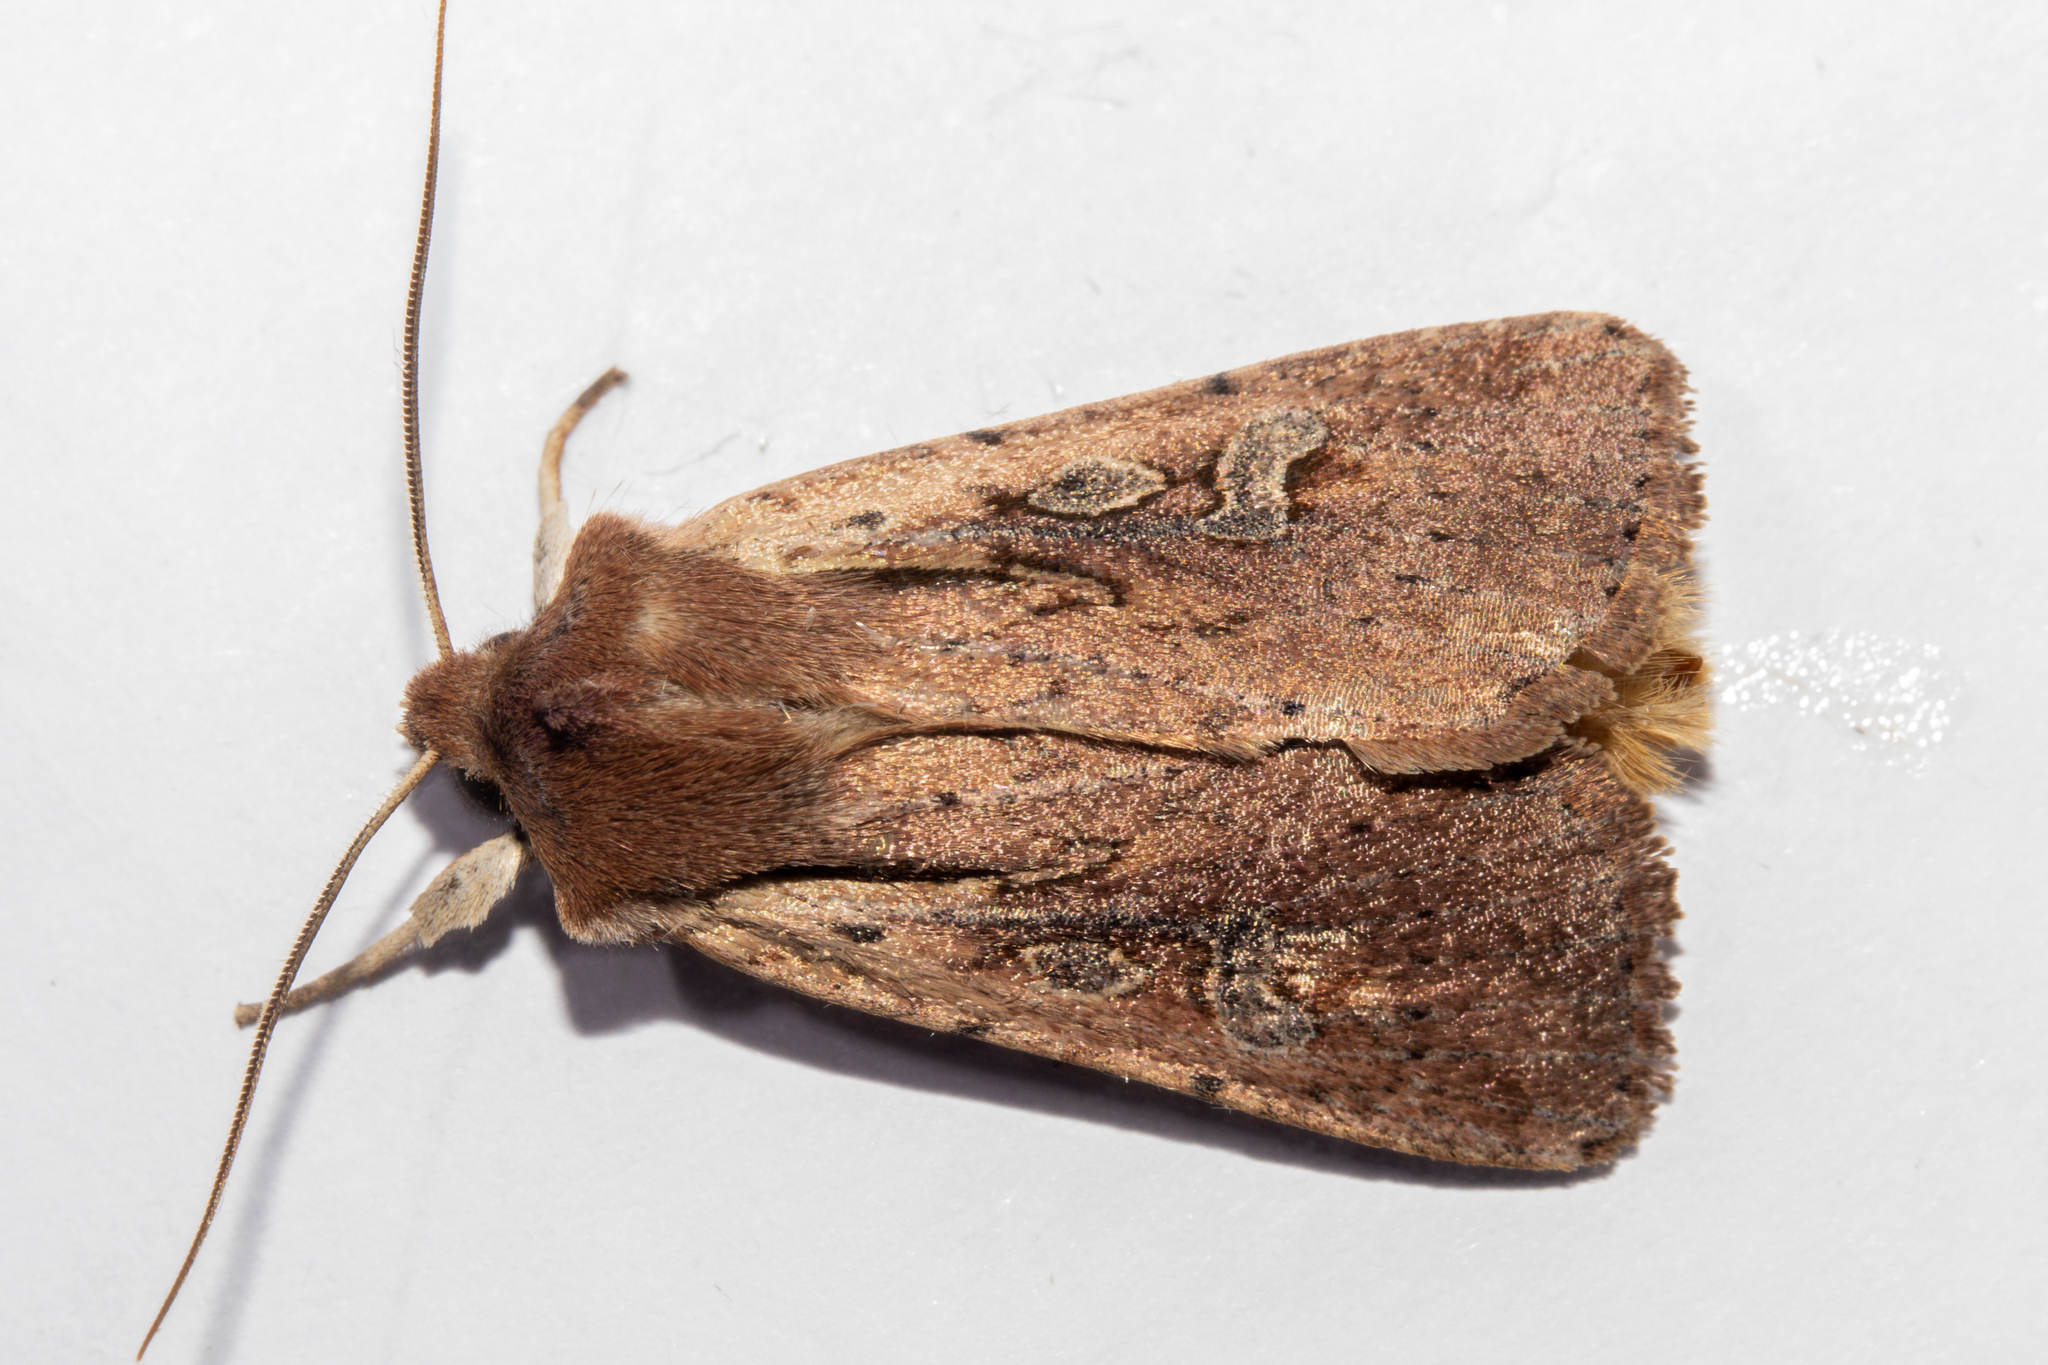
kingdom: Animalia
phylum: Arthropoda
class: Insecta
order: Lepidoptera
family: Noctuidae
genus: Ichneutica
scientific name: Ichneutica atristriga
